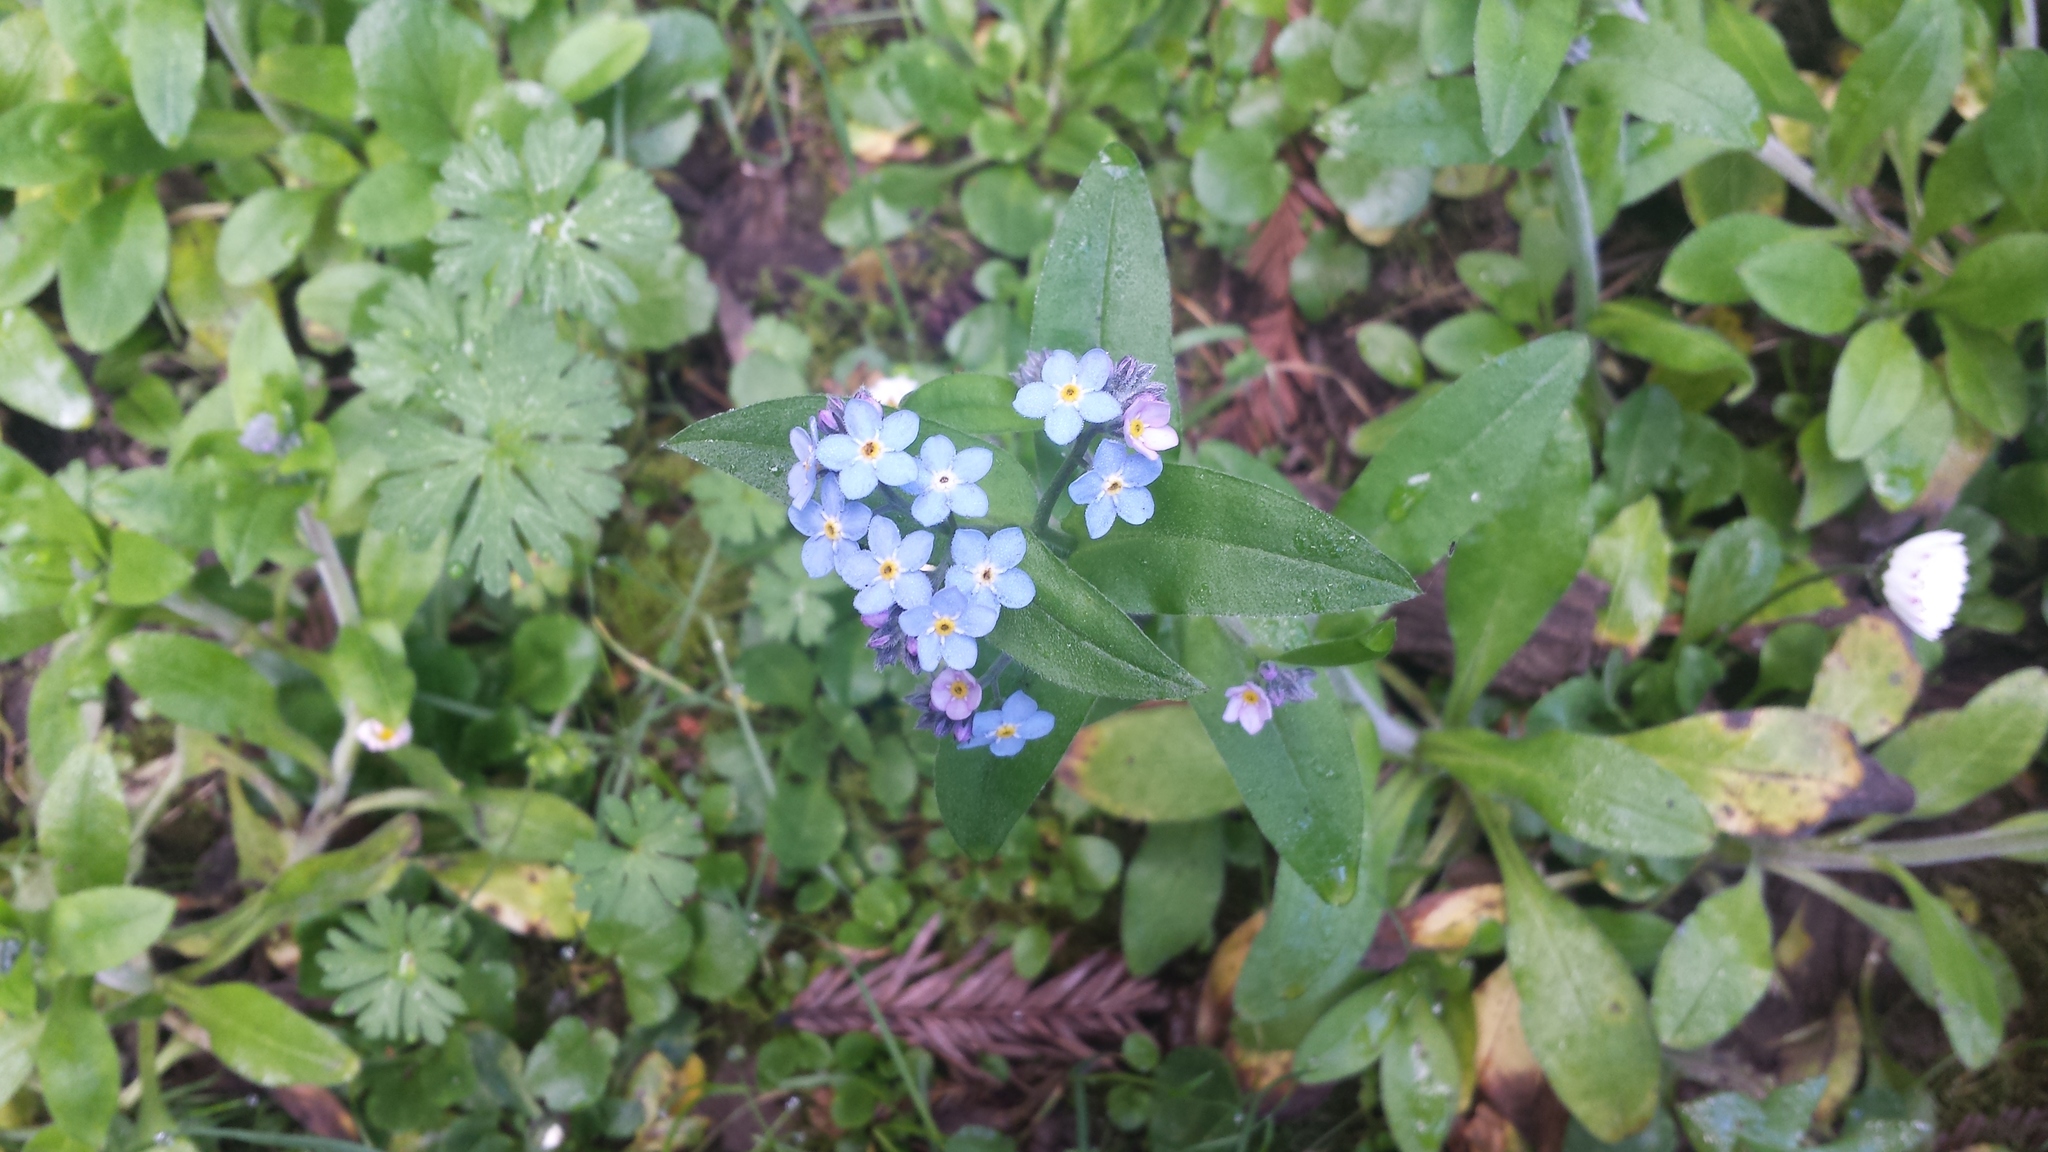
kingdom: Plantae
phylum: Tracheophyta
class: Magnoliopsida
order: Boraginales
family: Boraginaceae
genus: Myosotis
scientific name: Myosotis latifolia
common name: Broadleaf forget-me-not
